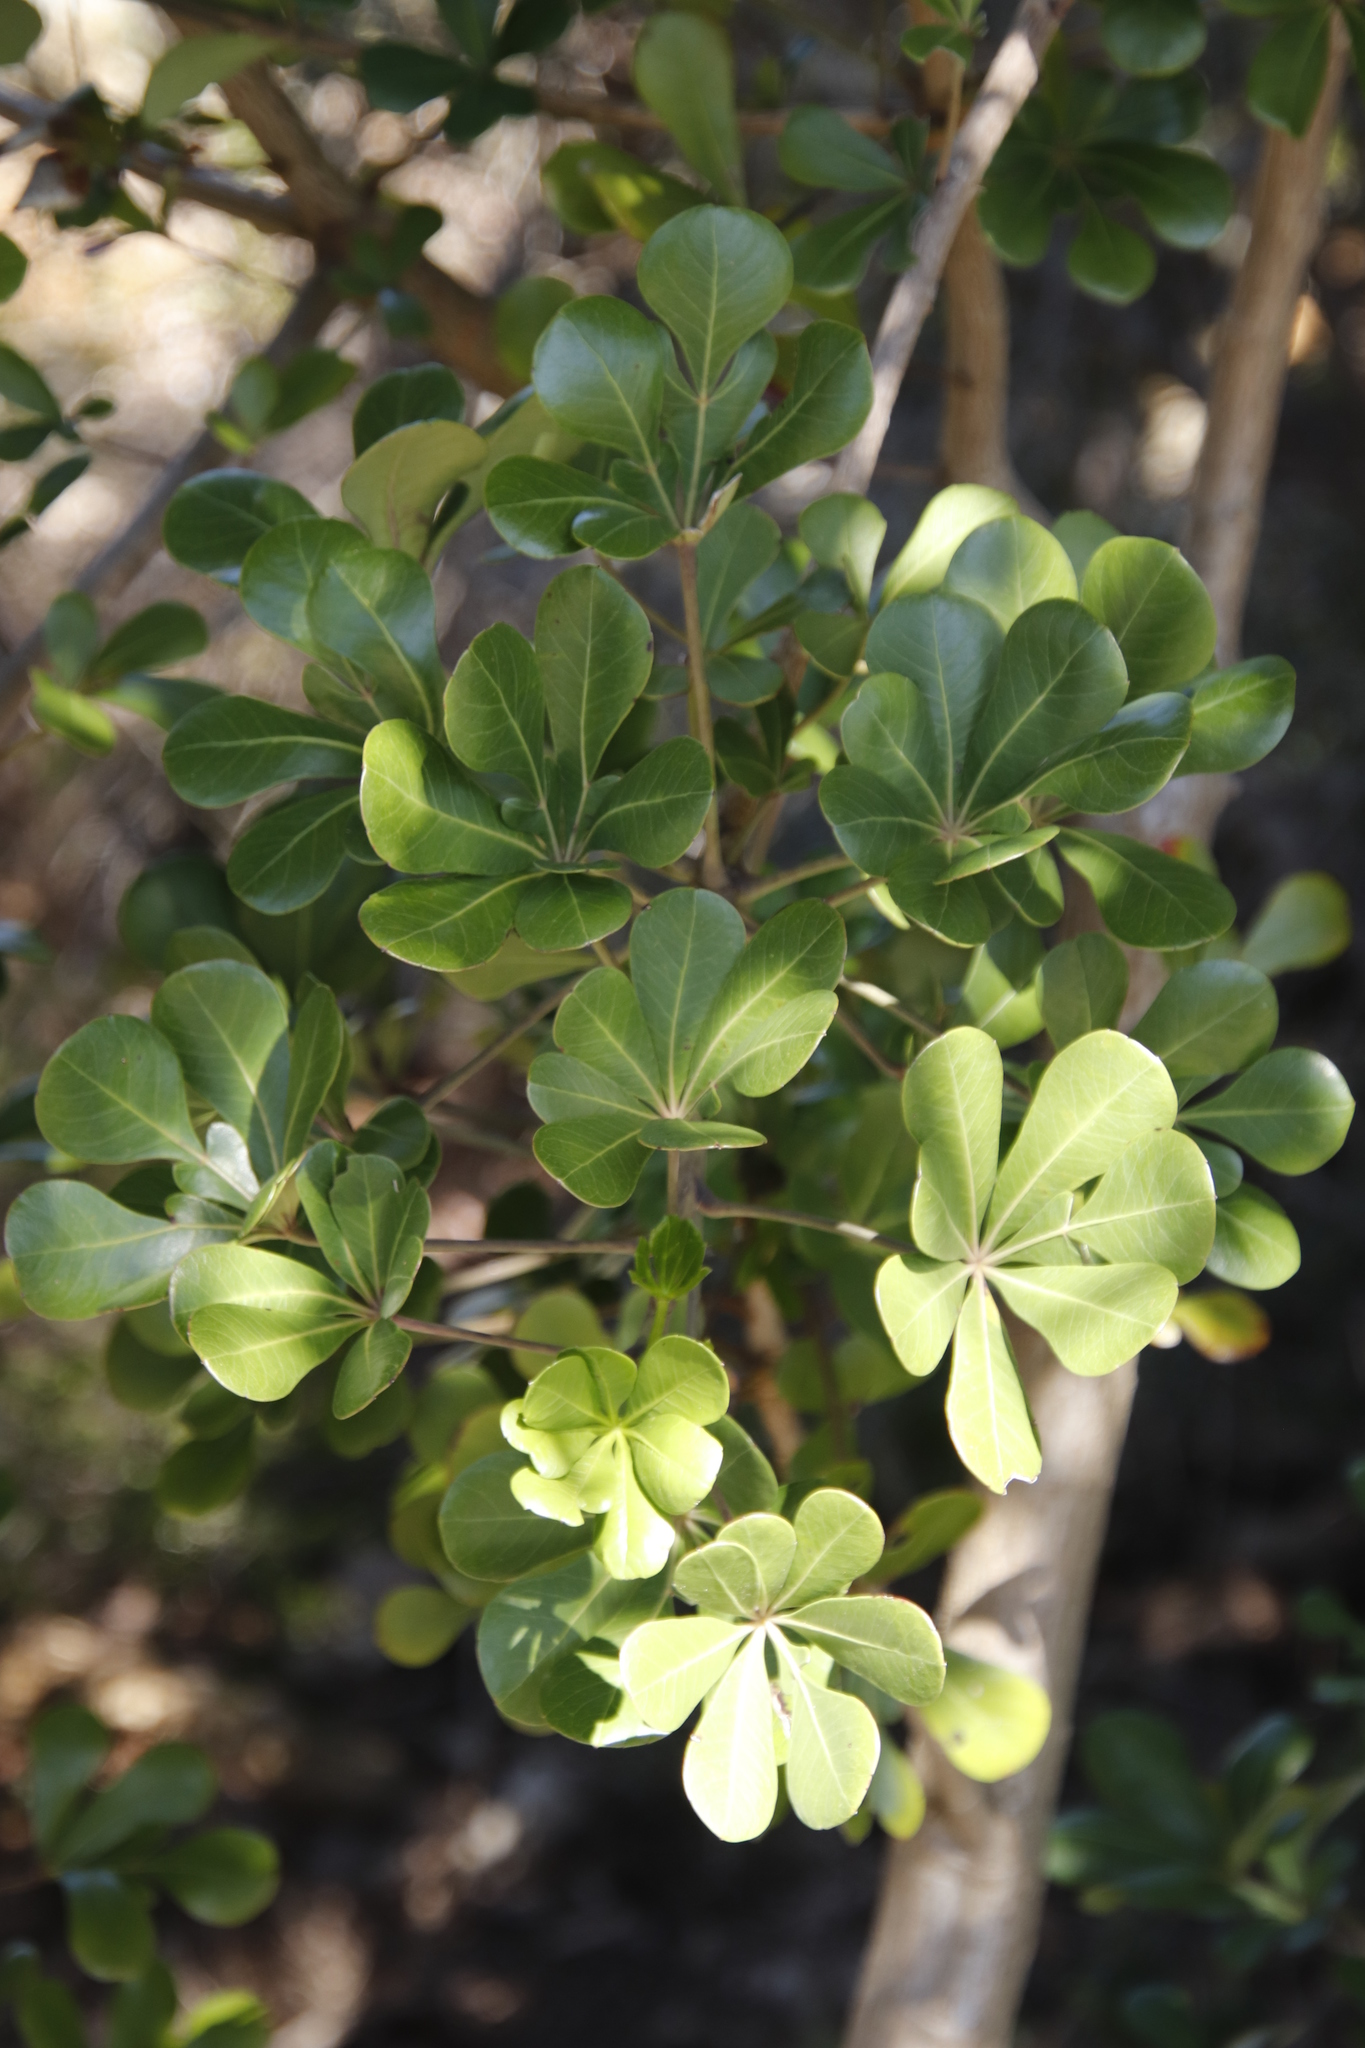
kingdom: Plantae
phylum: Tracheophyta
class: Magnoliopsida
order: Apiales
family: Araliaceae
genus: Cussonia
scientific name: Cussonia thyrsiflora
